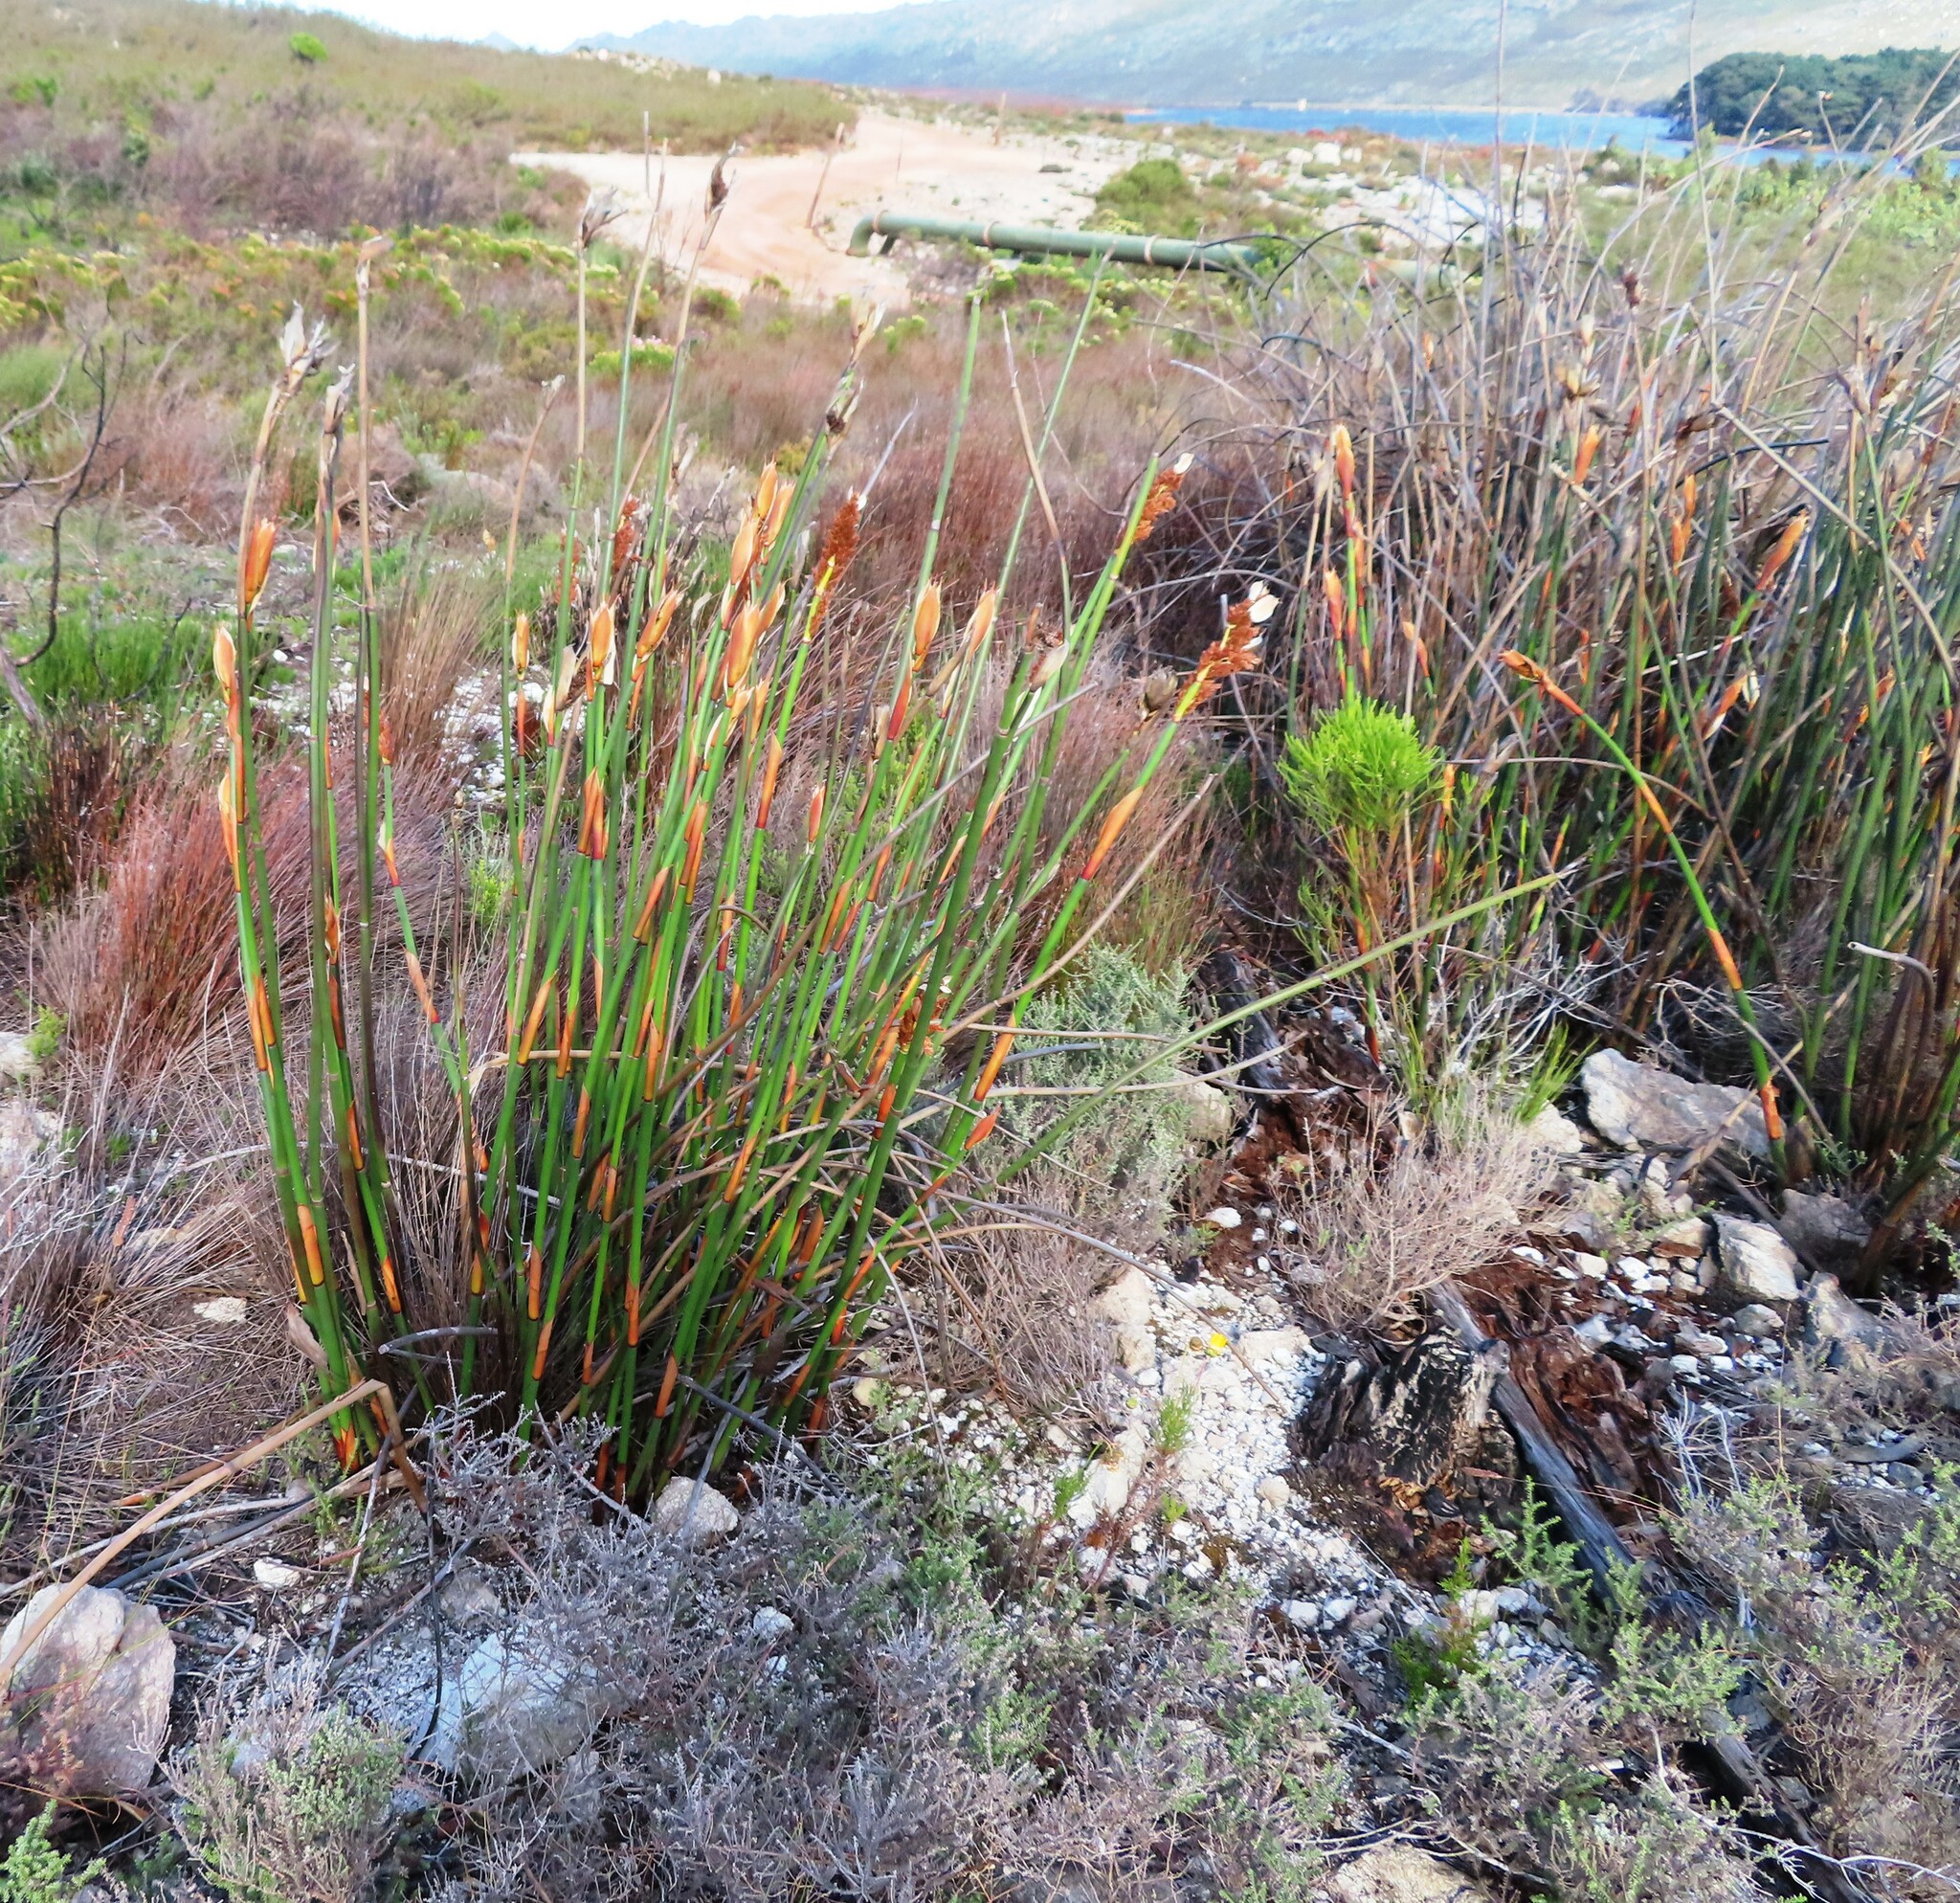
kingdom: Plantae
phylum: Tracheophyta
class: Liliopsida
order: Poales
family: Restionaceae
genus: Elegia
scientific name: Elegia mucronata
